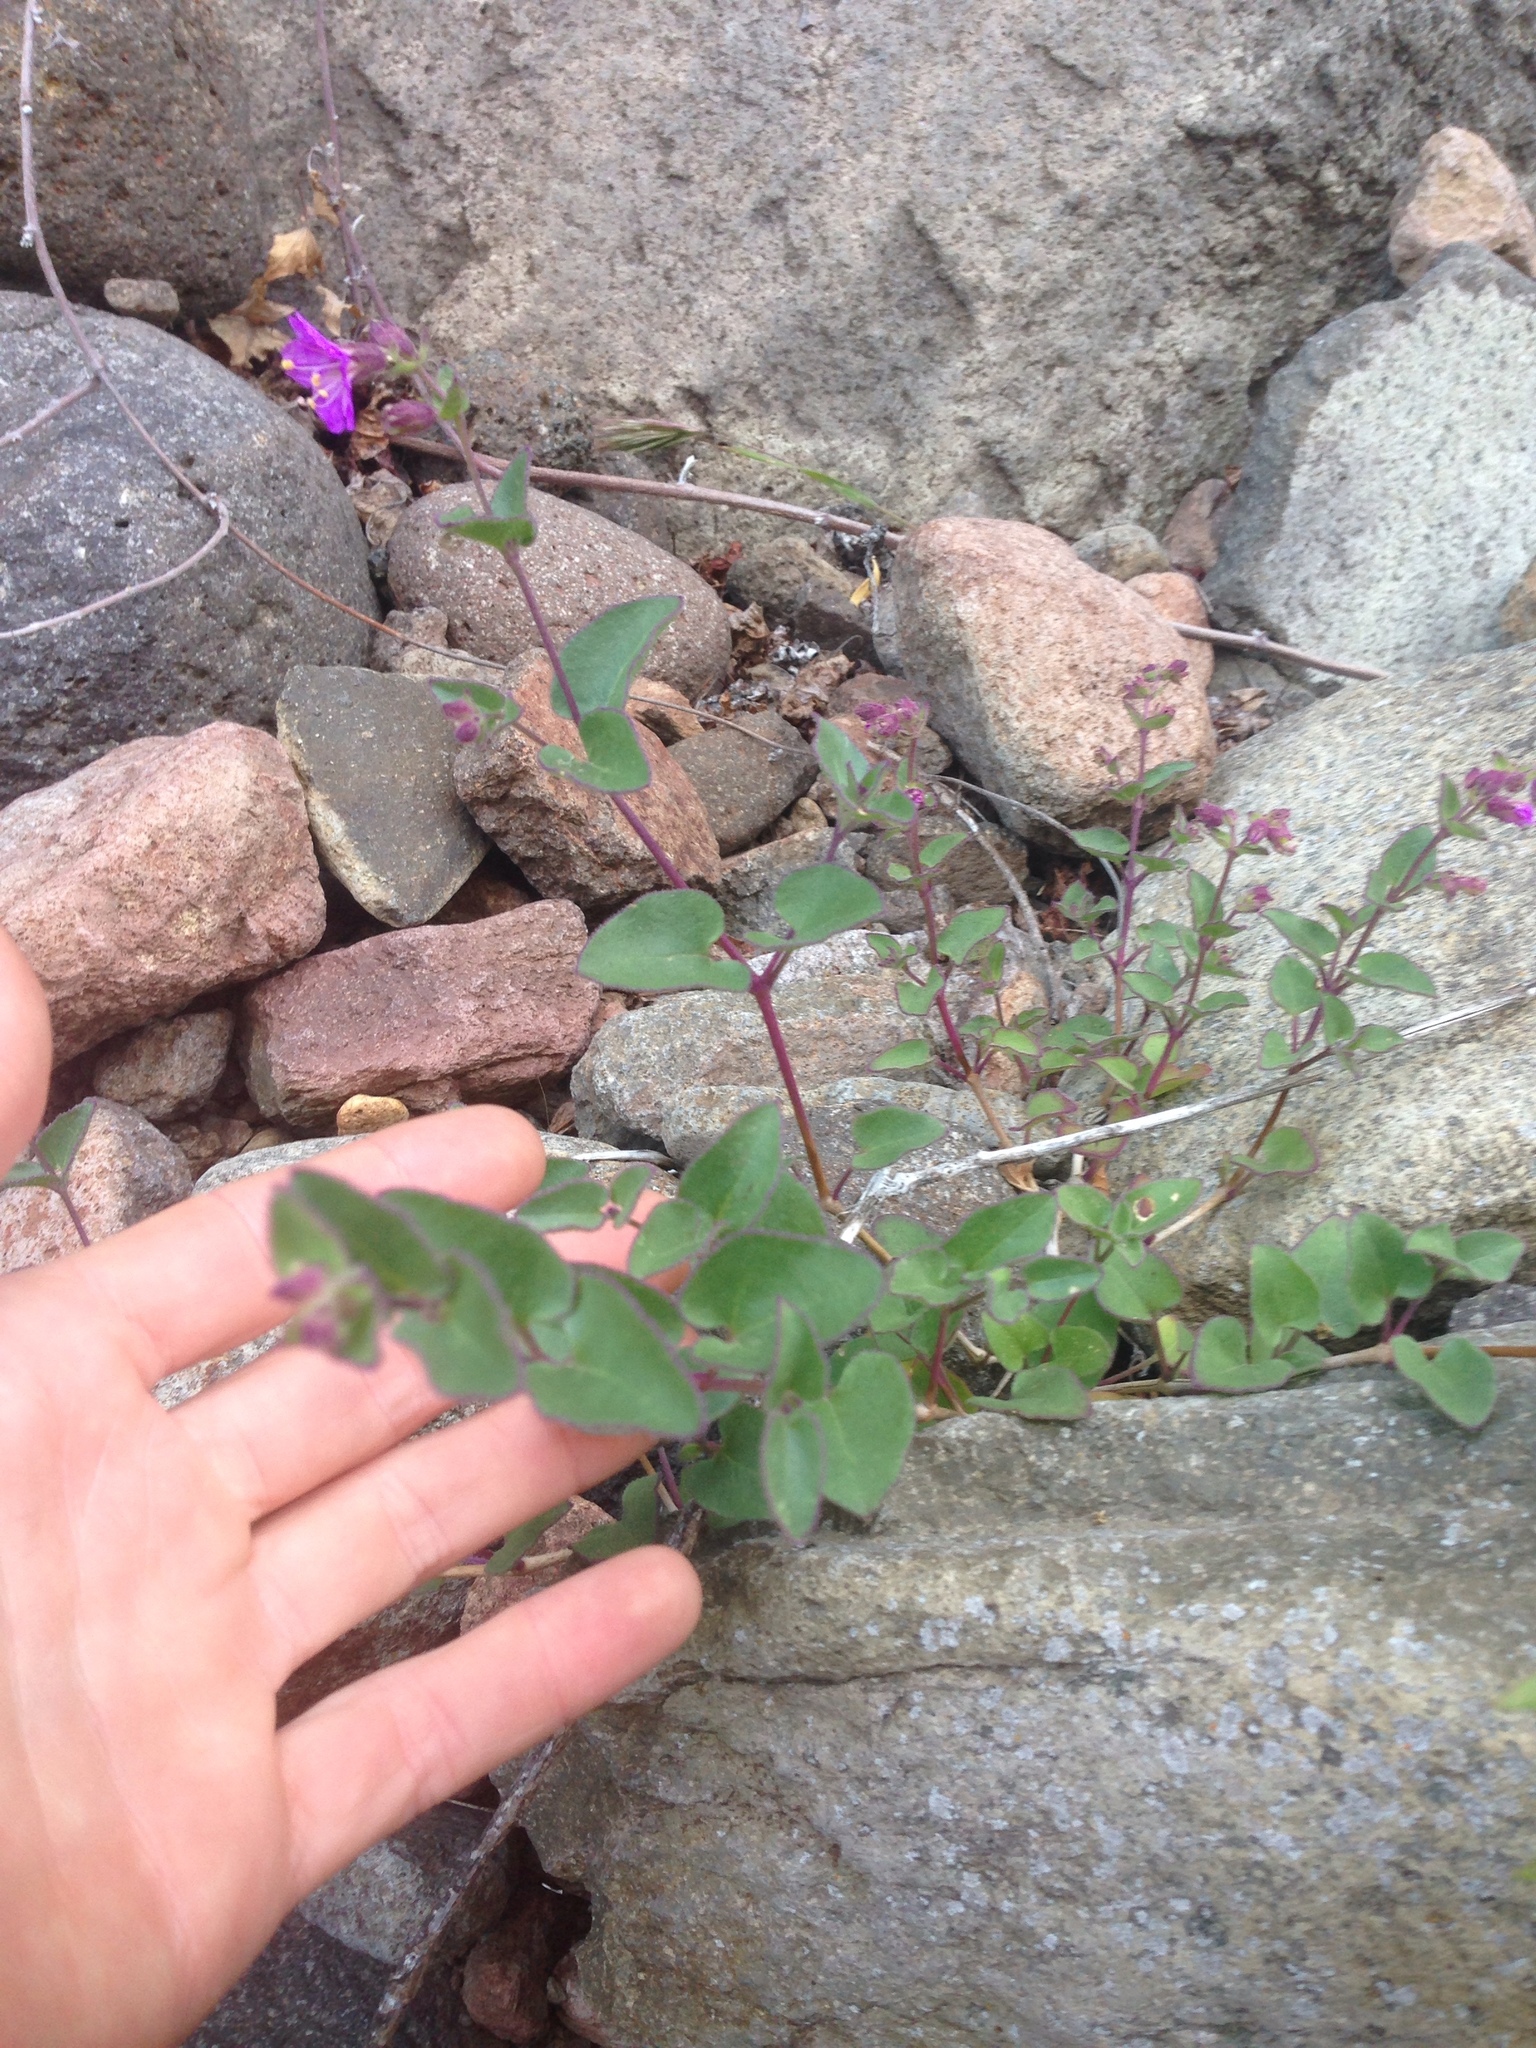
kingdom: Plantae
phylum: Tracheophyta
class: Magnoliopsida
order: Caryophyllales
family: Nyctaginaceae
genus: Mirabilis
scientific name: Mirabilis laevis
